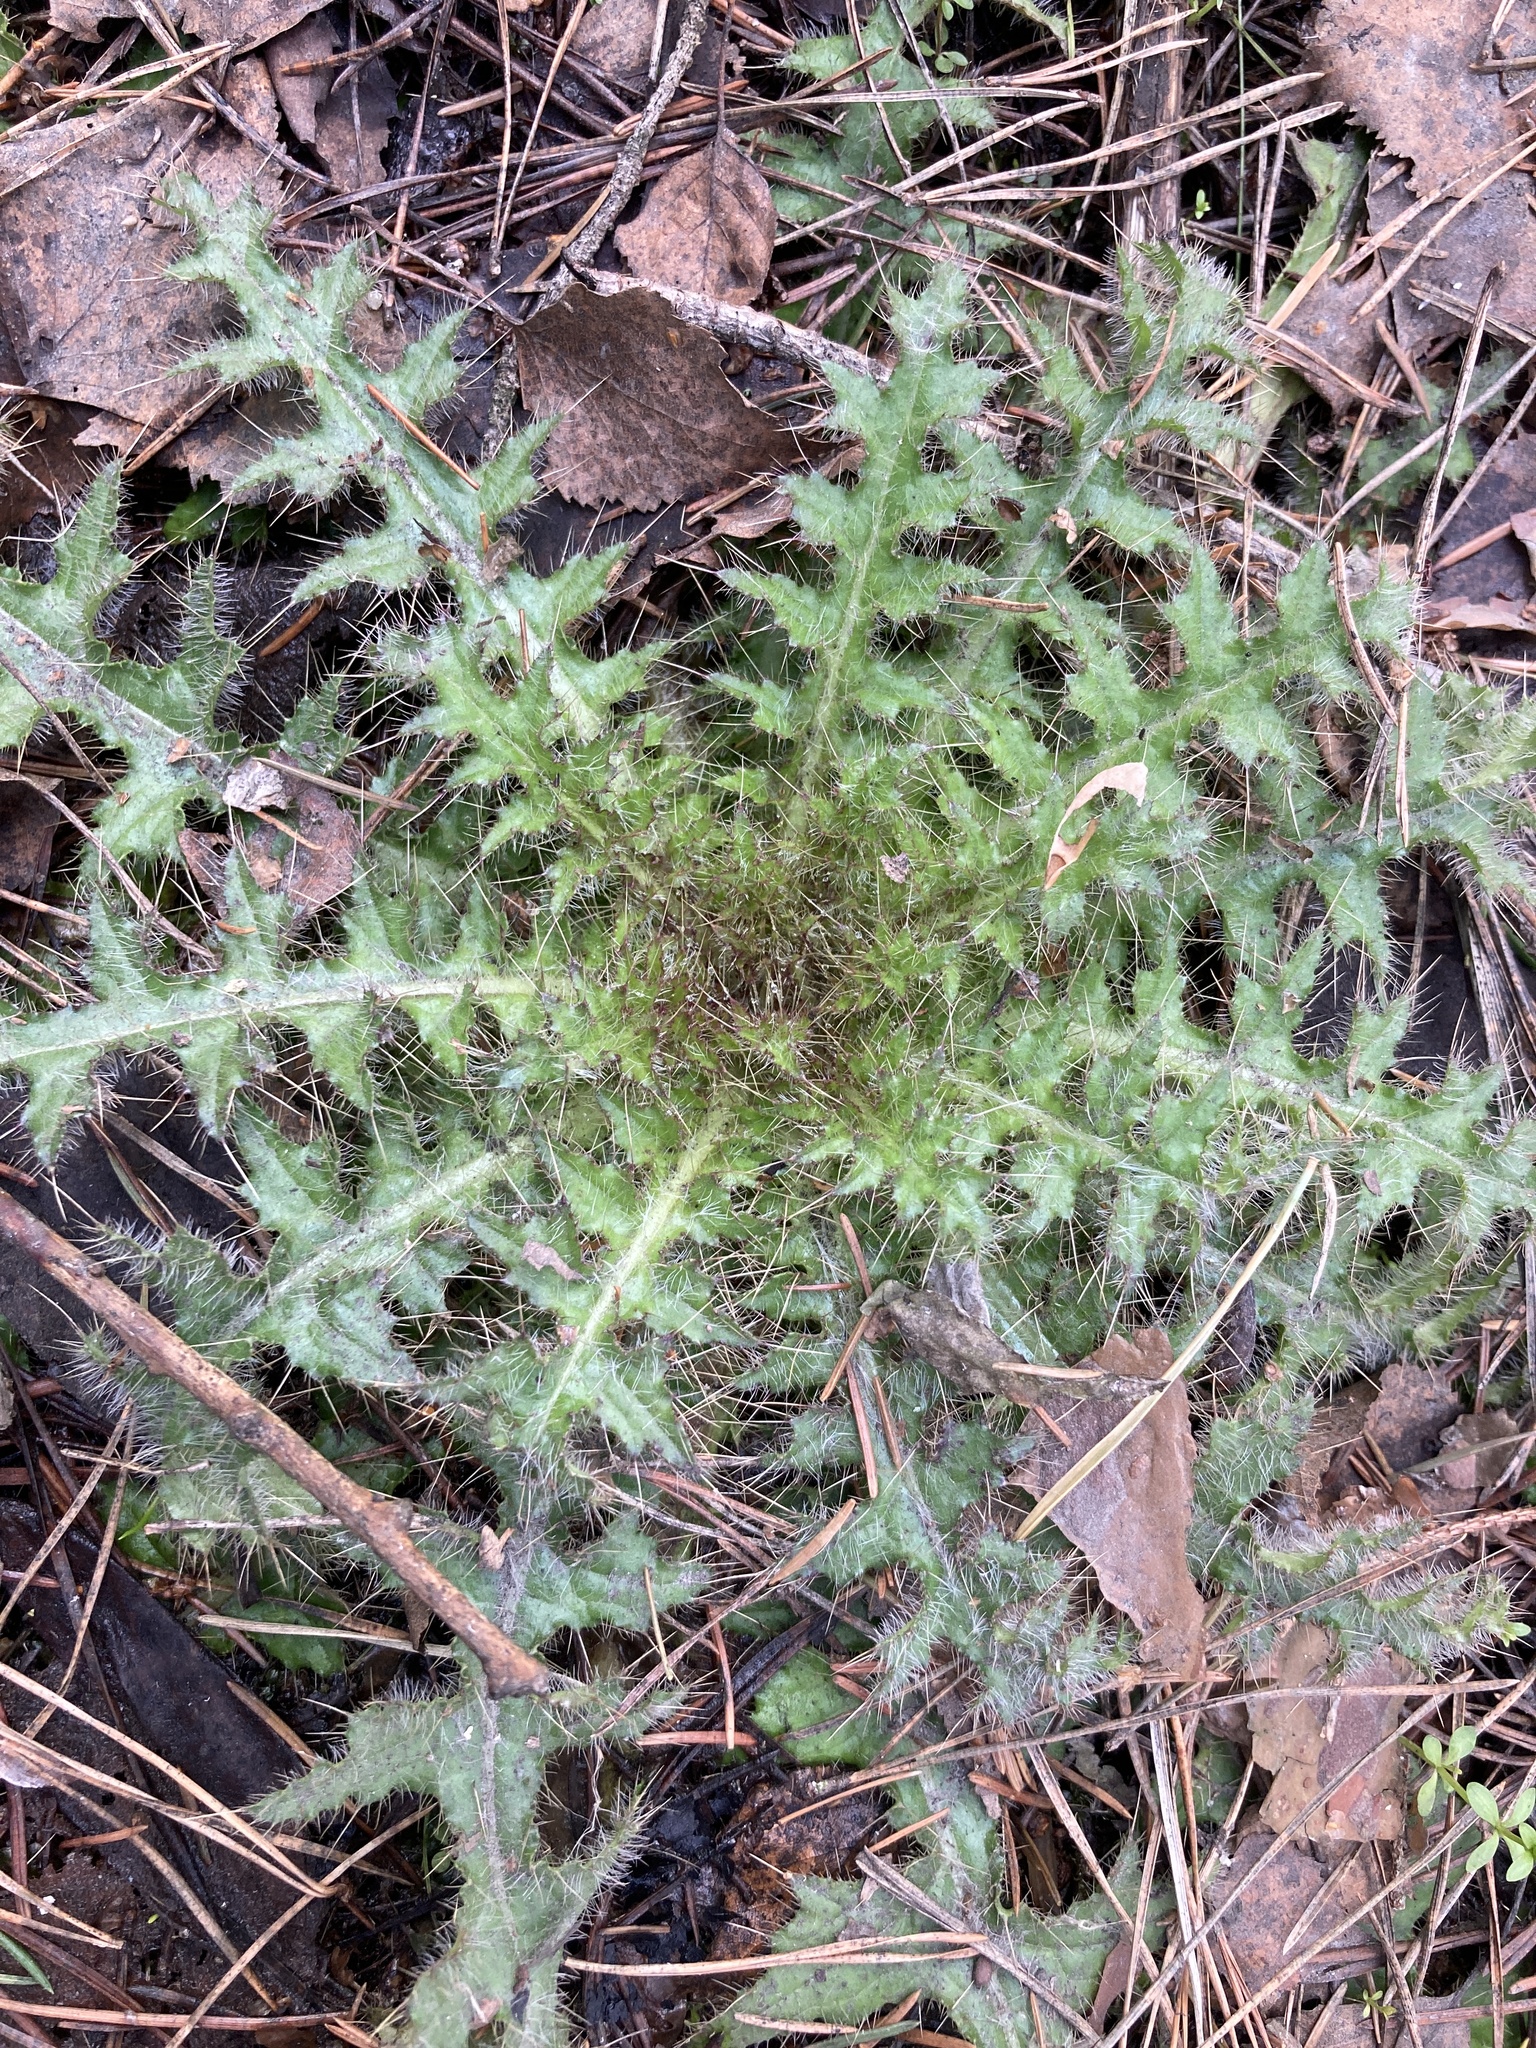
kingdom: Plantae
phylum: Tracheophyta
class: Magnoliopsida
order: Asterales
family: Asteraceae
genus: Cirsium
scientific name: Cirsium palustre
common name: Marsh thistle
